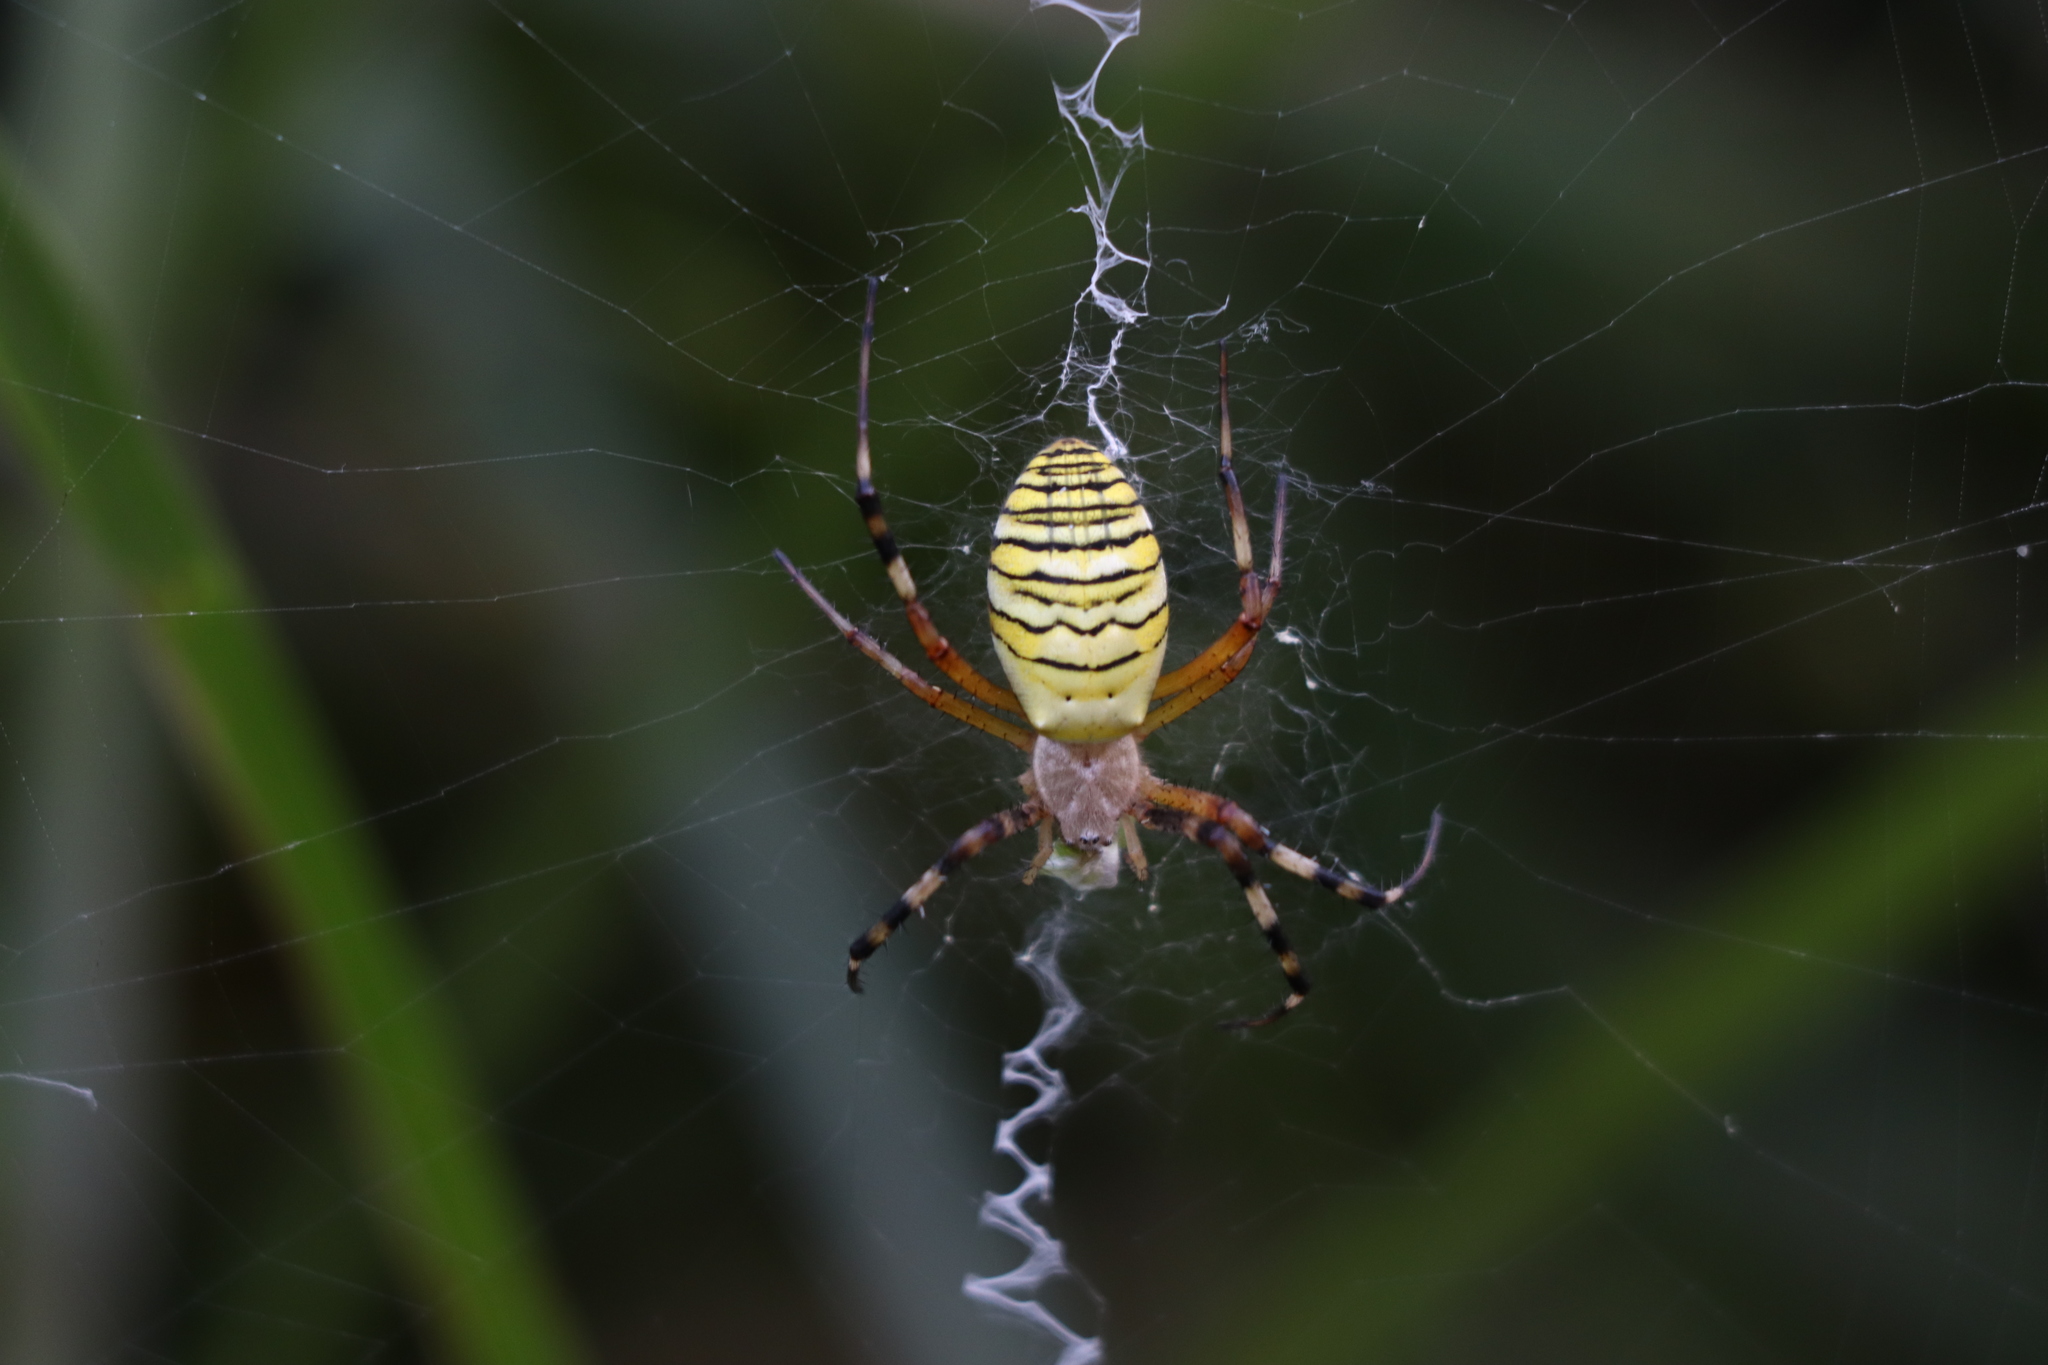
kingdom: Animalia
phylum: Arthropoda
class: Arachnida
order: Araneae
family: Araneidae
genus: Argiope
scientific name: Argiope bruennichi
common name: Wasp spider
